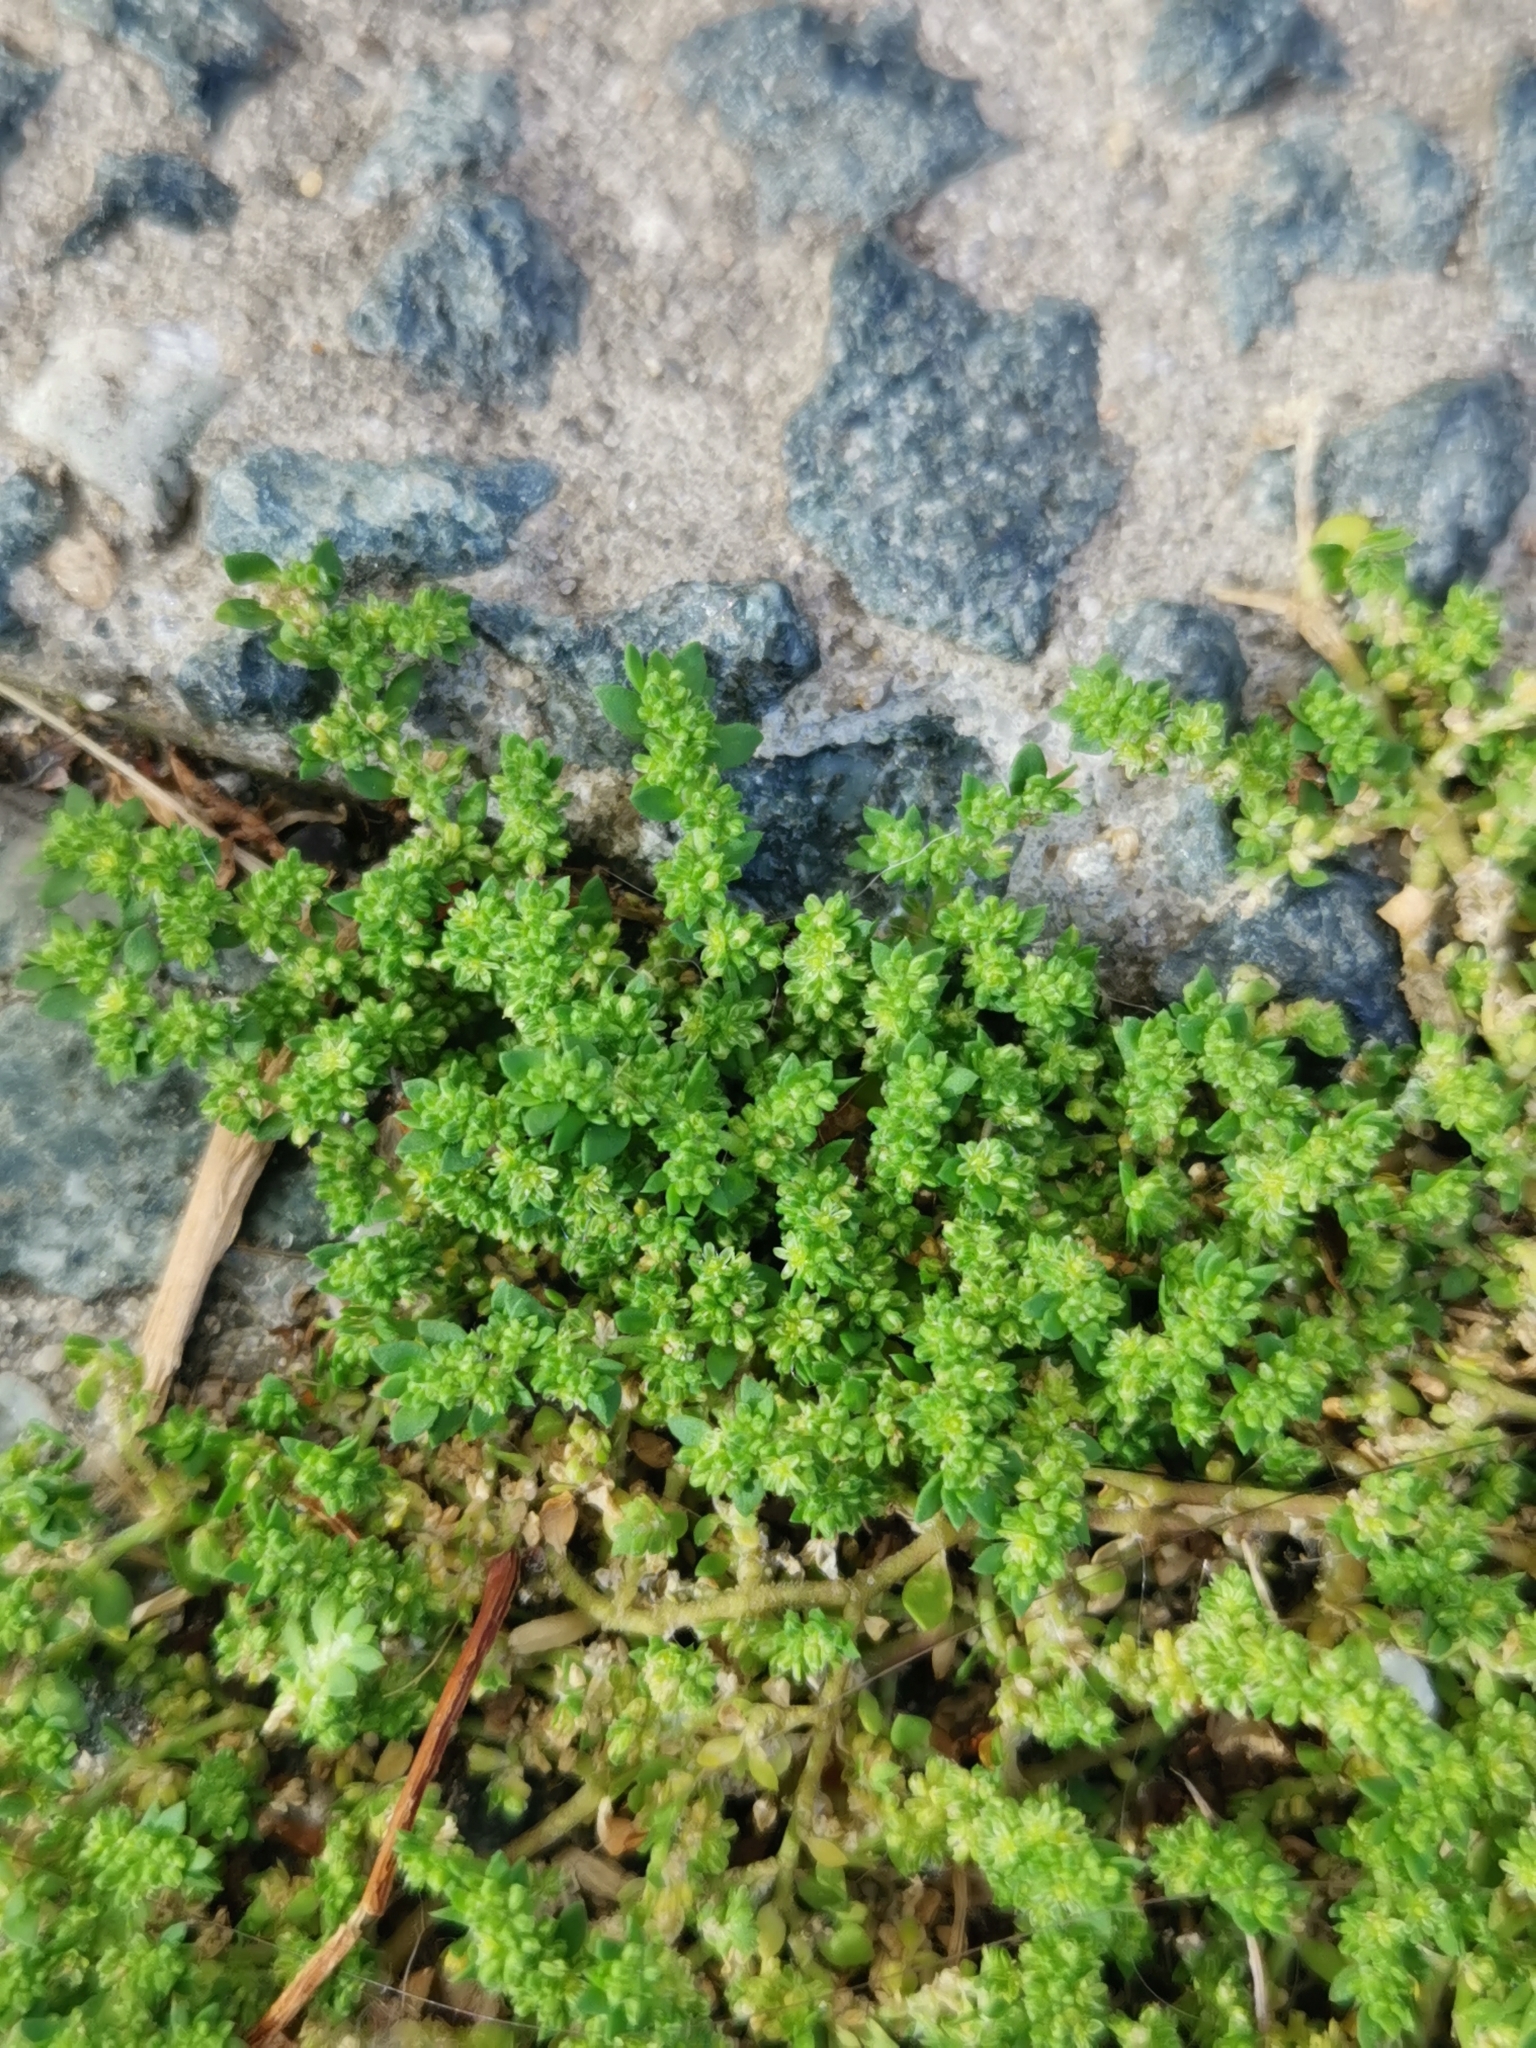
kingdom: Plantae
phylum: Tracheophyta
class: Magnoliopsida
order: Caryophyllales
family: Caryophyllaceae
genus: Herniaria
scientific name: Herniaria glabra
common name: Smooth rupturewort
